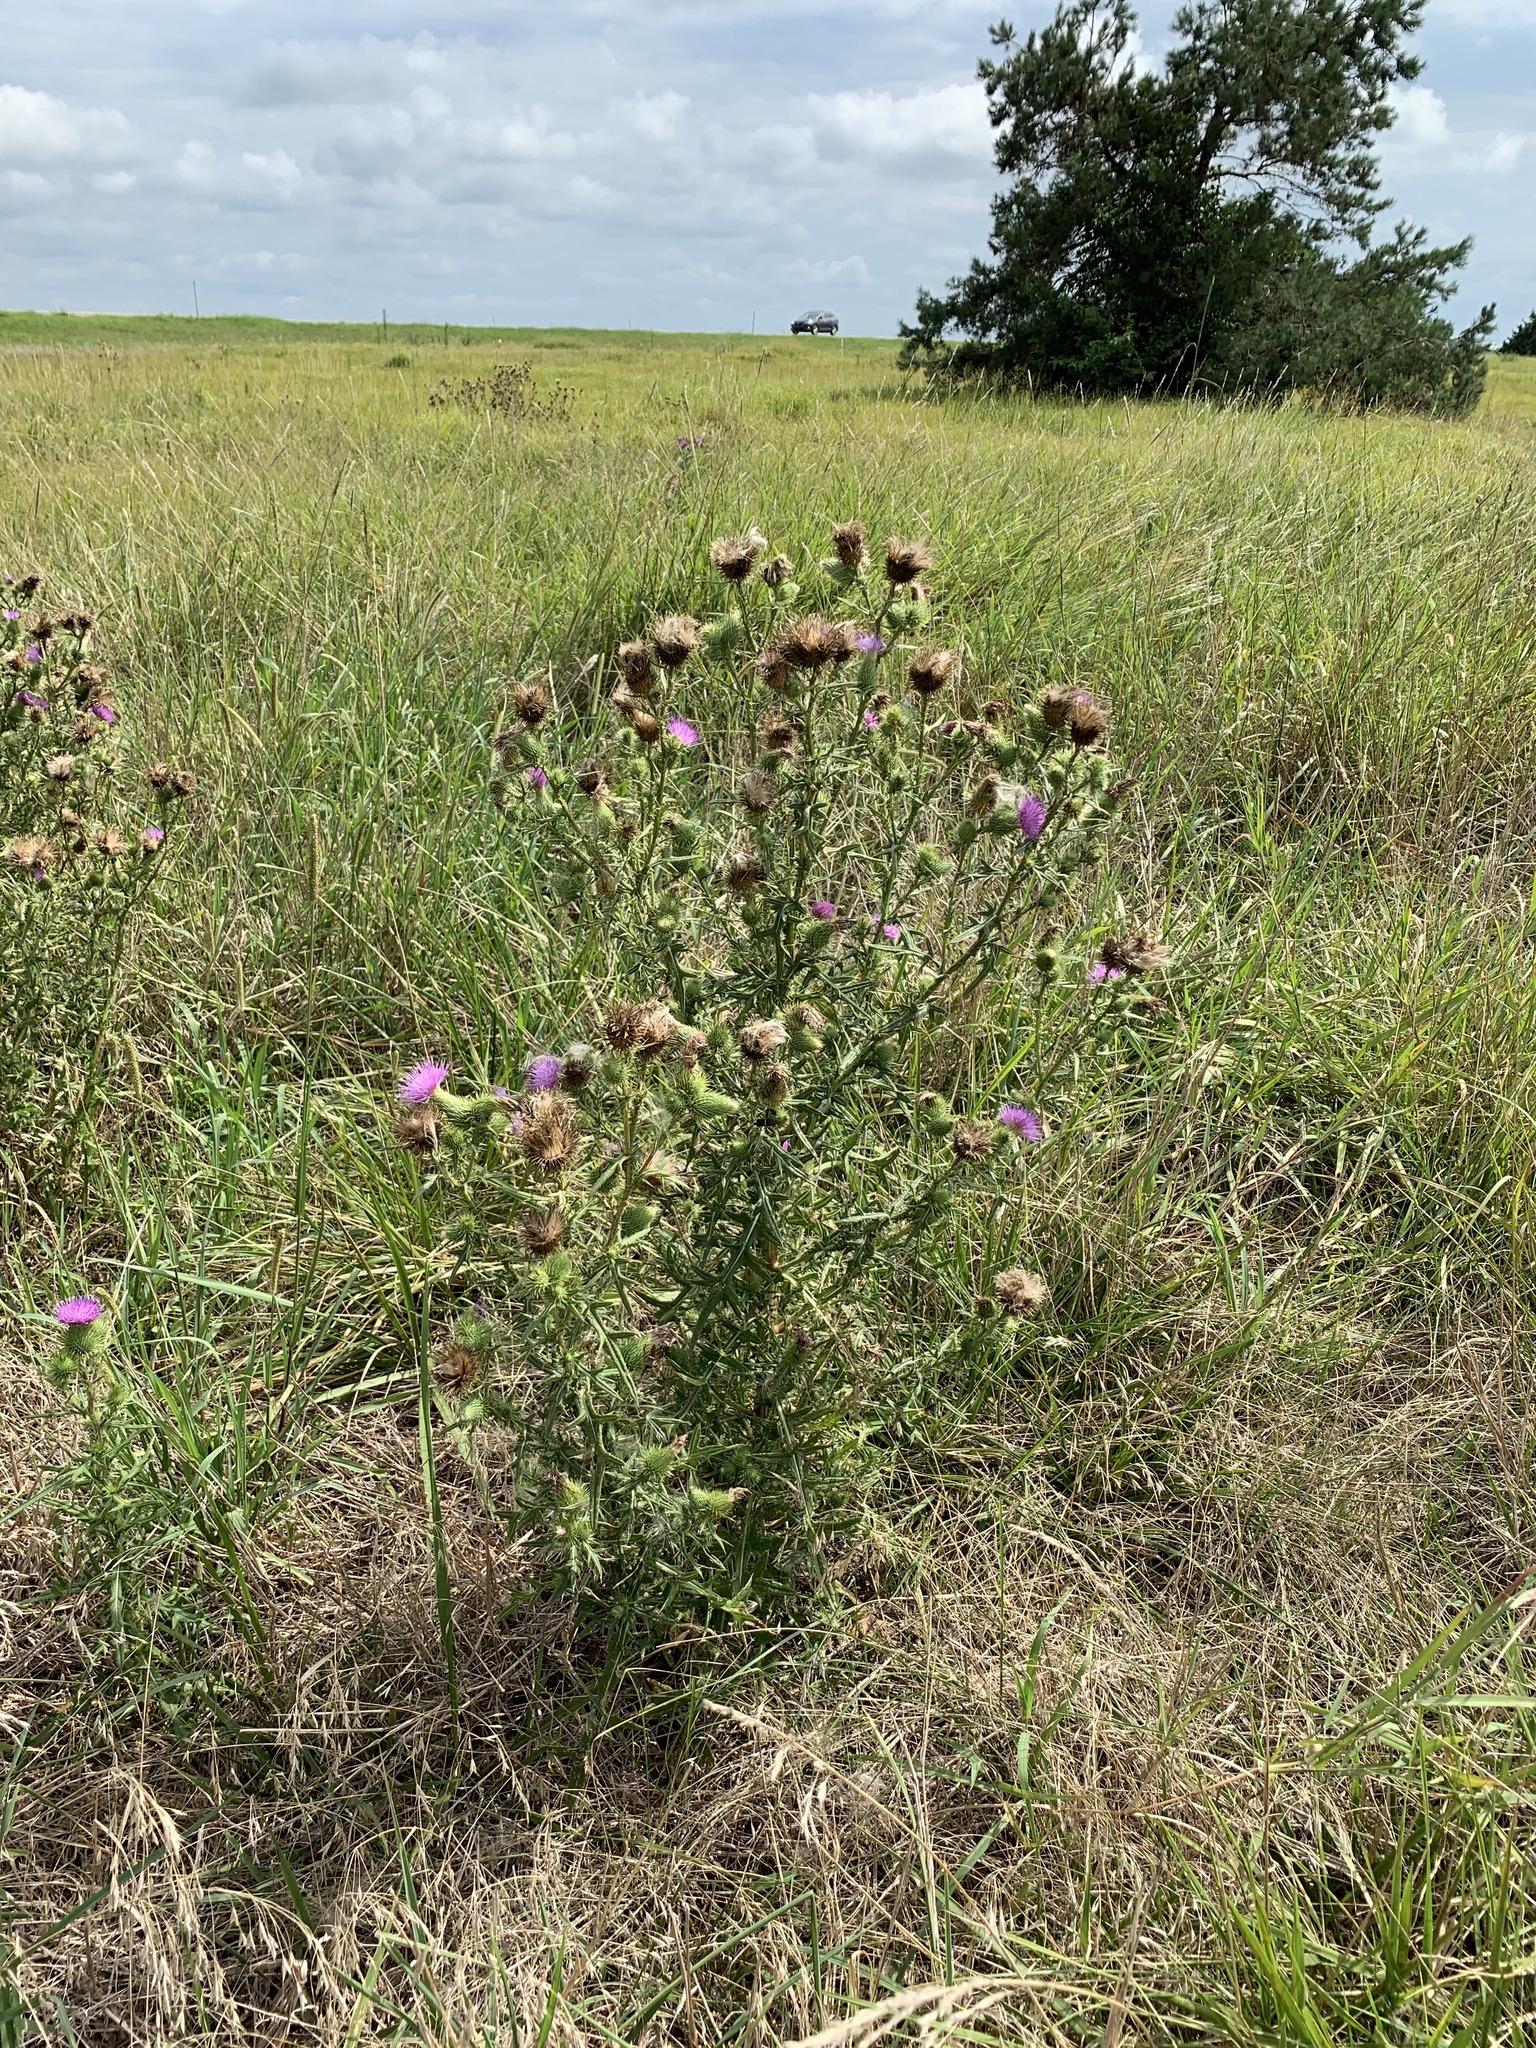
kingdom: Plantae
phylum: Tracheophyta
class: Magnoliopsida
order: Asterales
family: Asteraceae
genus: Cirsium
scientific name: Cirsium vulgare
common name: Bull thistle
